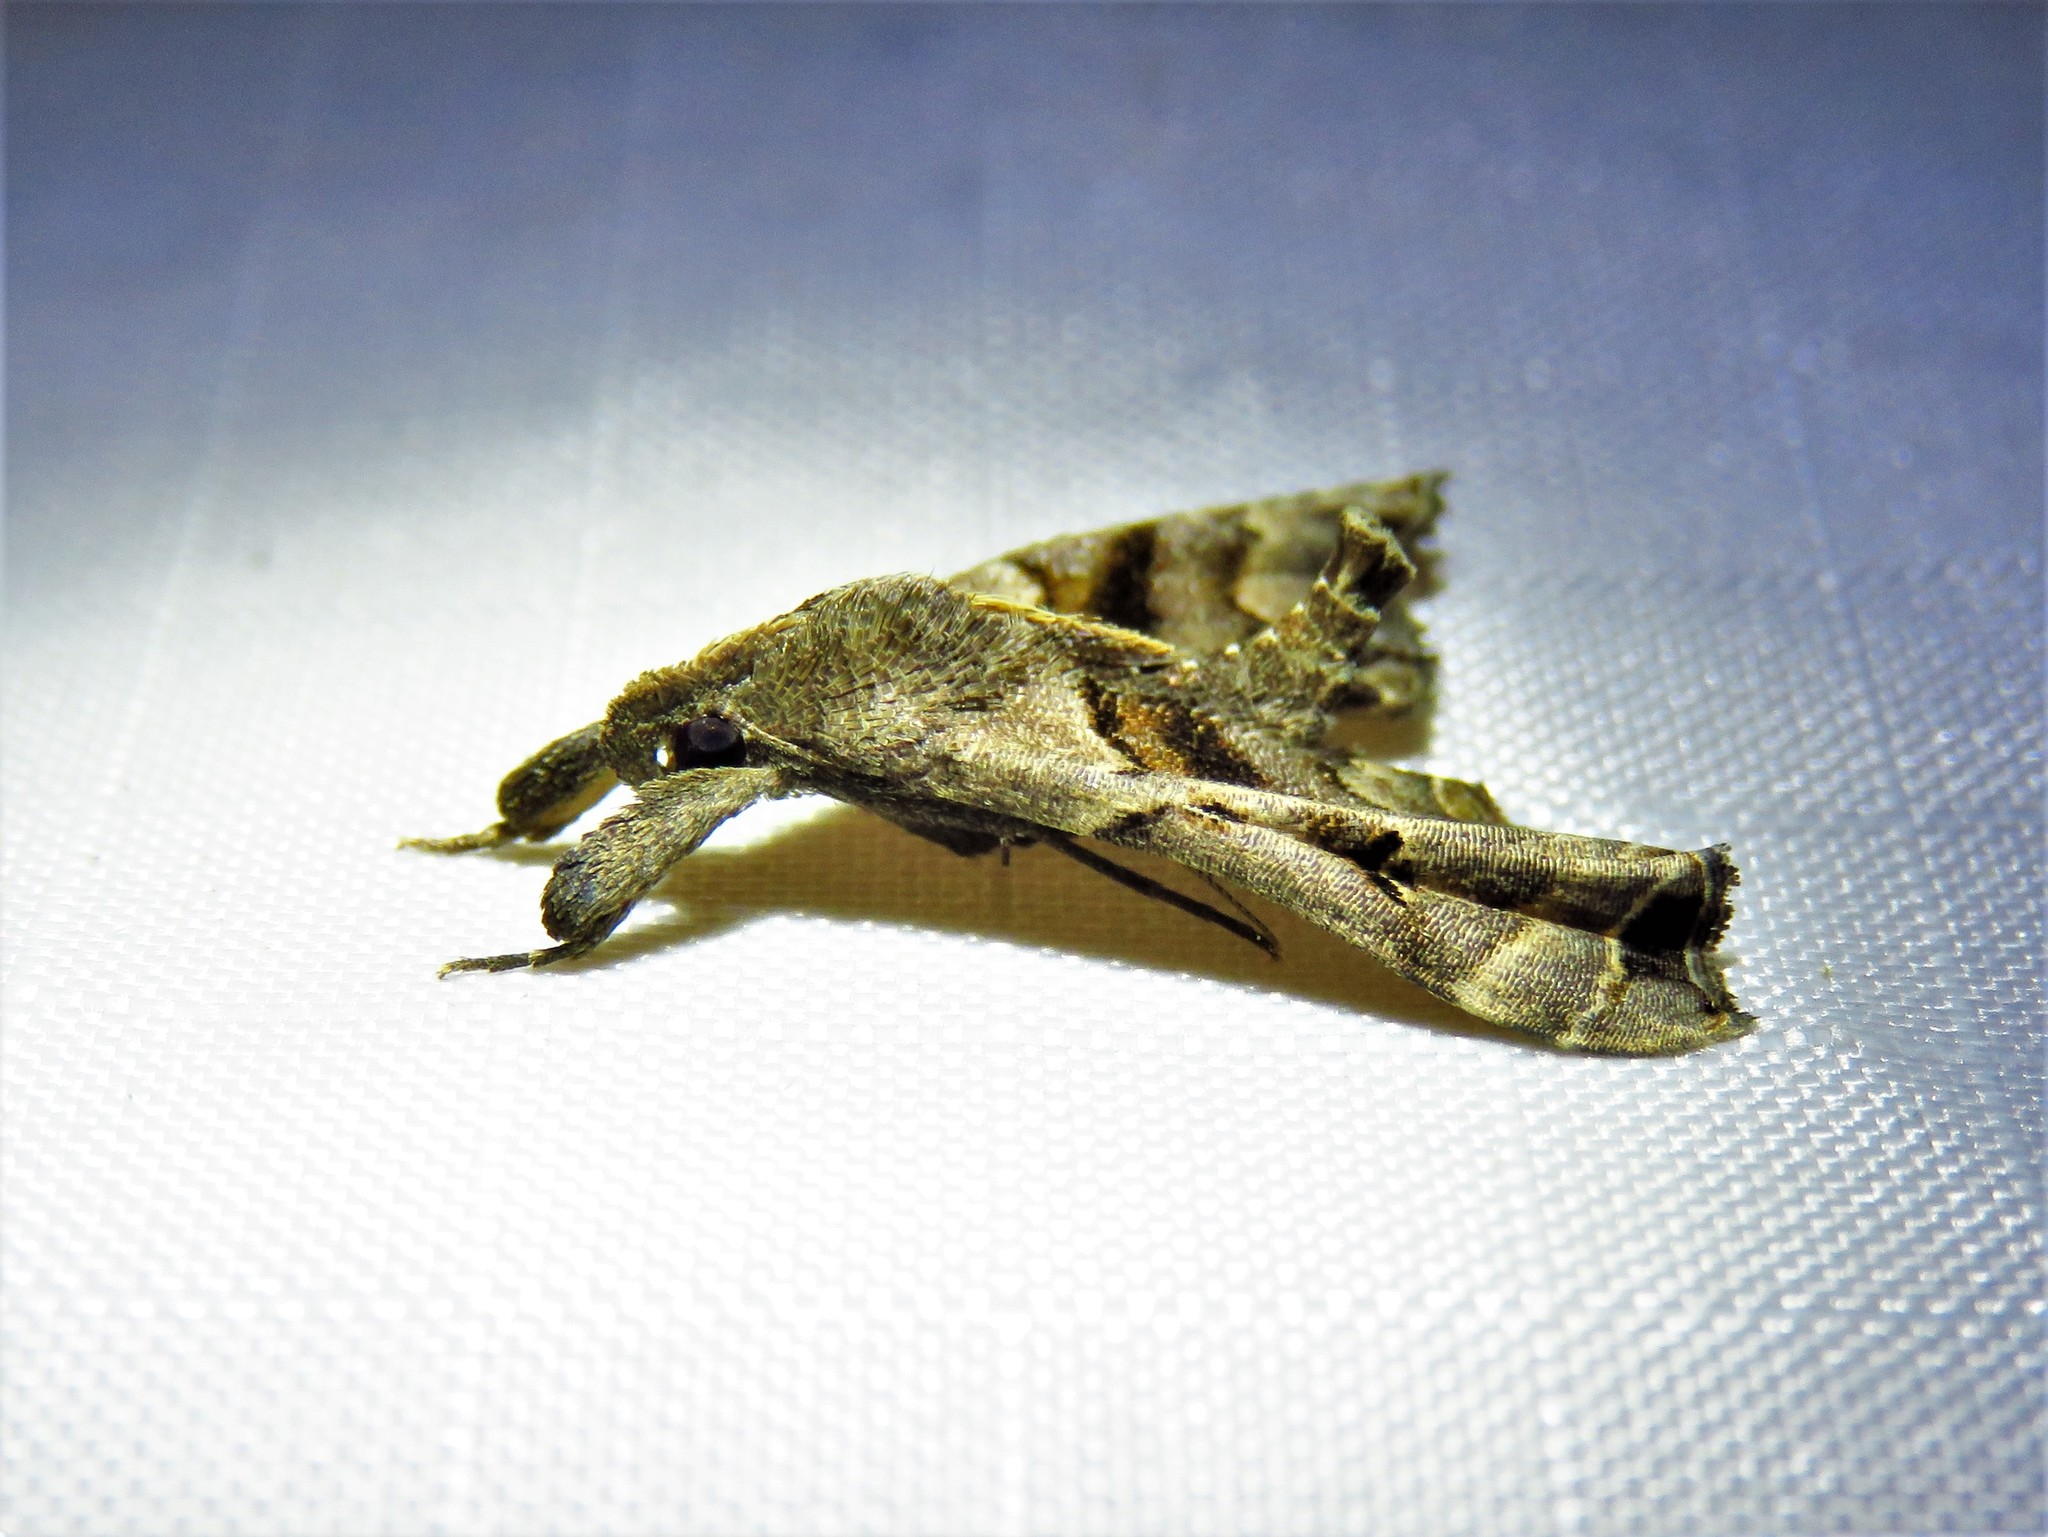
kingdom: Animalia
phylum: Arthropoda
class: Insecta
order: Lepidoptera
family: Erebidae
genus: Palthis
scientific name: Palthis asopialis
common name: Faint-spotted palthis moth
